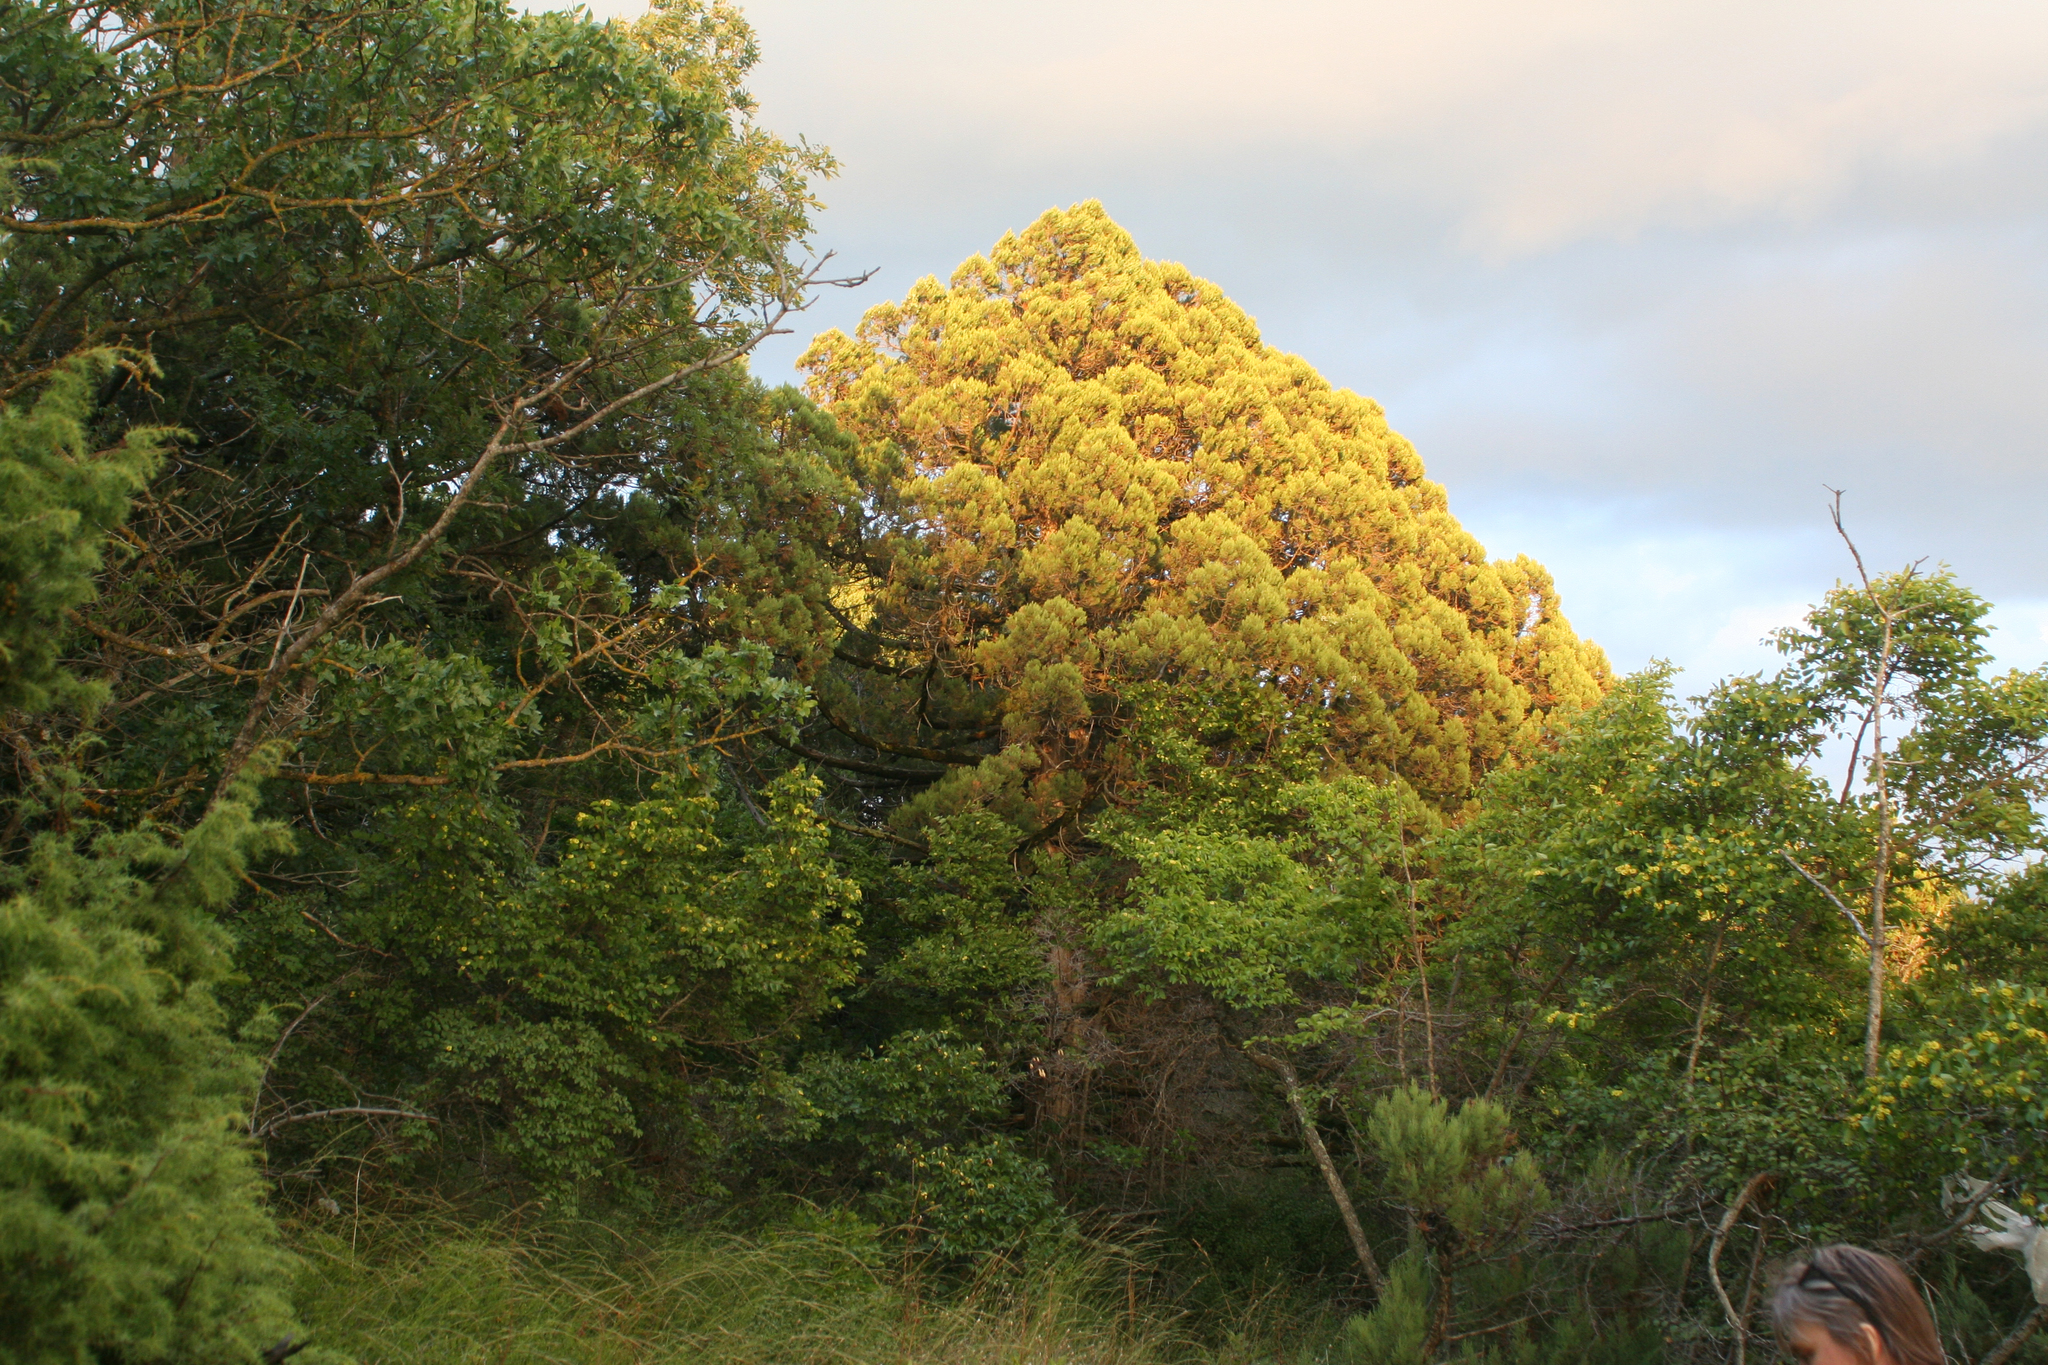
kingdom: Plantae
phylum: Tracheophyta
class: Pinopsida
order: Pinales
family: Cupressaceae
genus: Juniperus
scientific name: Juniperus excelsa
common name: Crimean juniper
